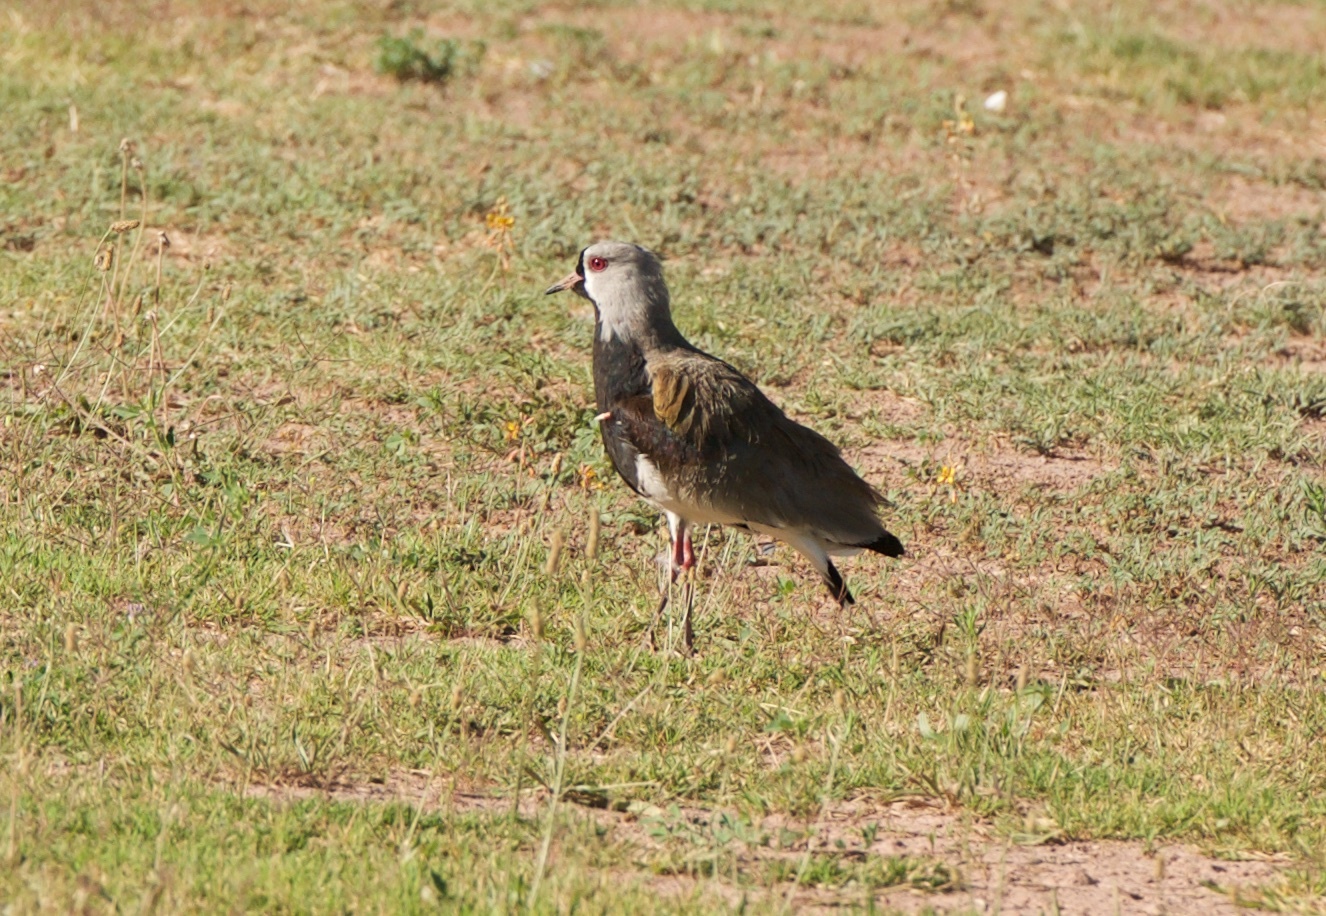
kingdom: Animalia
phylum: Chordata
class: Aves
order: Charadriiformes
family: Charadriidae
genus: Vanellus
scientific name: Vanellus chilensis
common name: Southern lapwing
